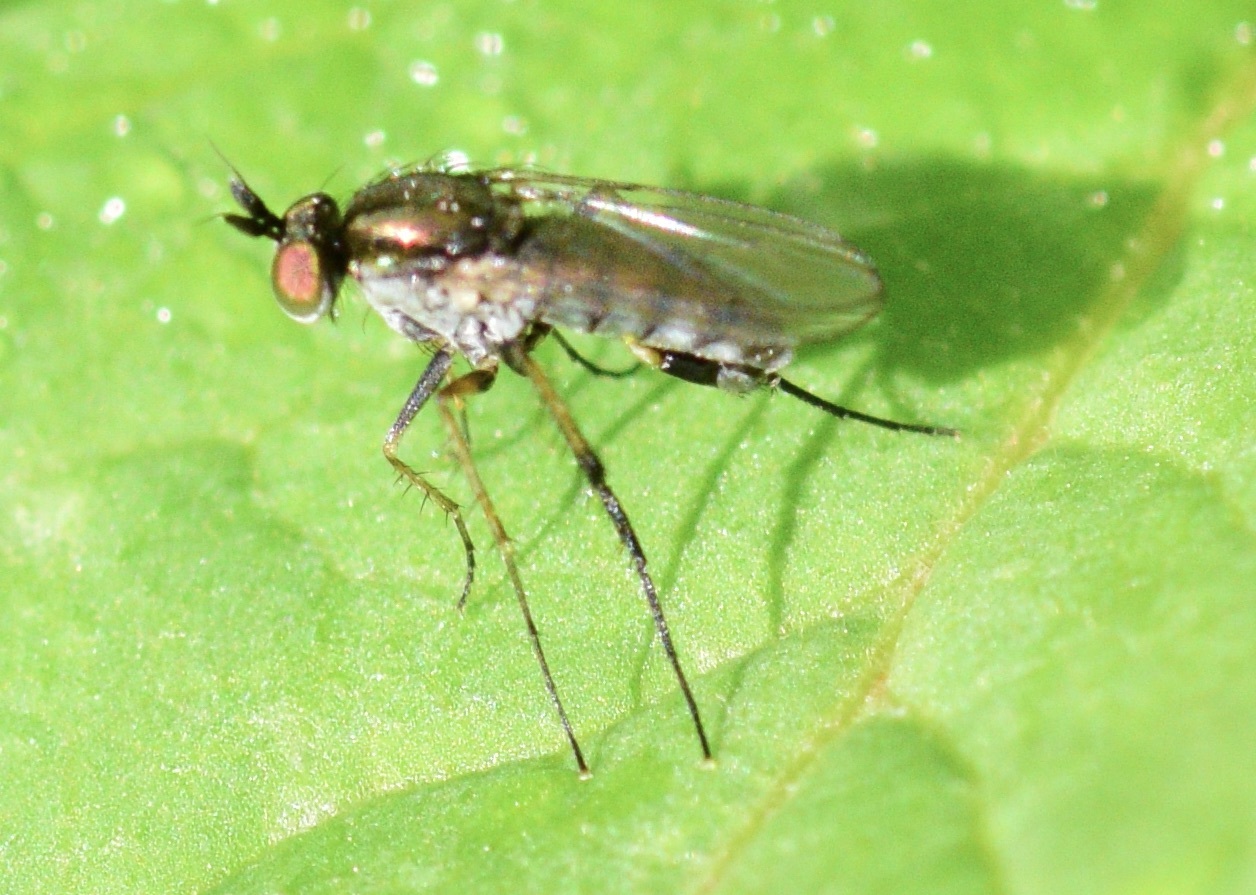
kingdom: Animalia
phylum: Arthropoda
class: Insecta
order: Diptera
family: Dolichopodidae
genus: Dolichopus
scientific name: Dolichopus laticornis
